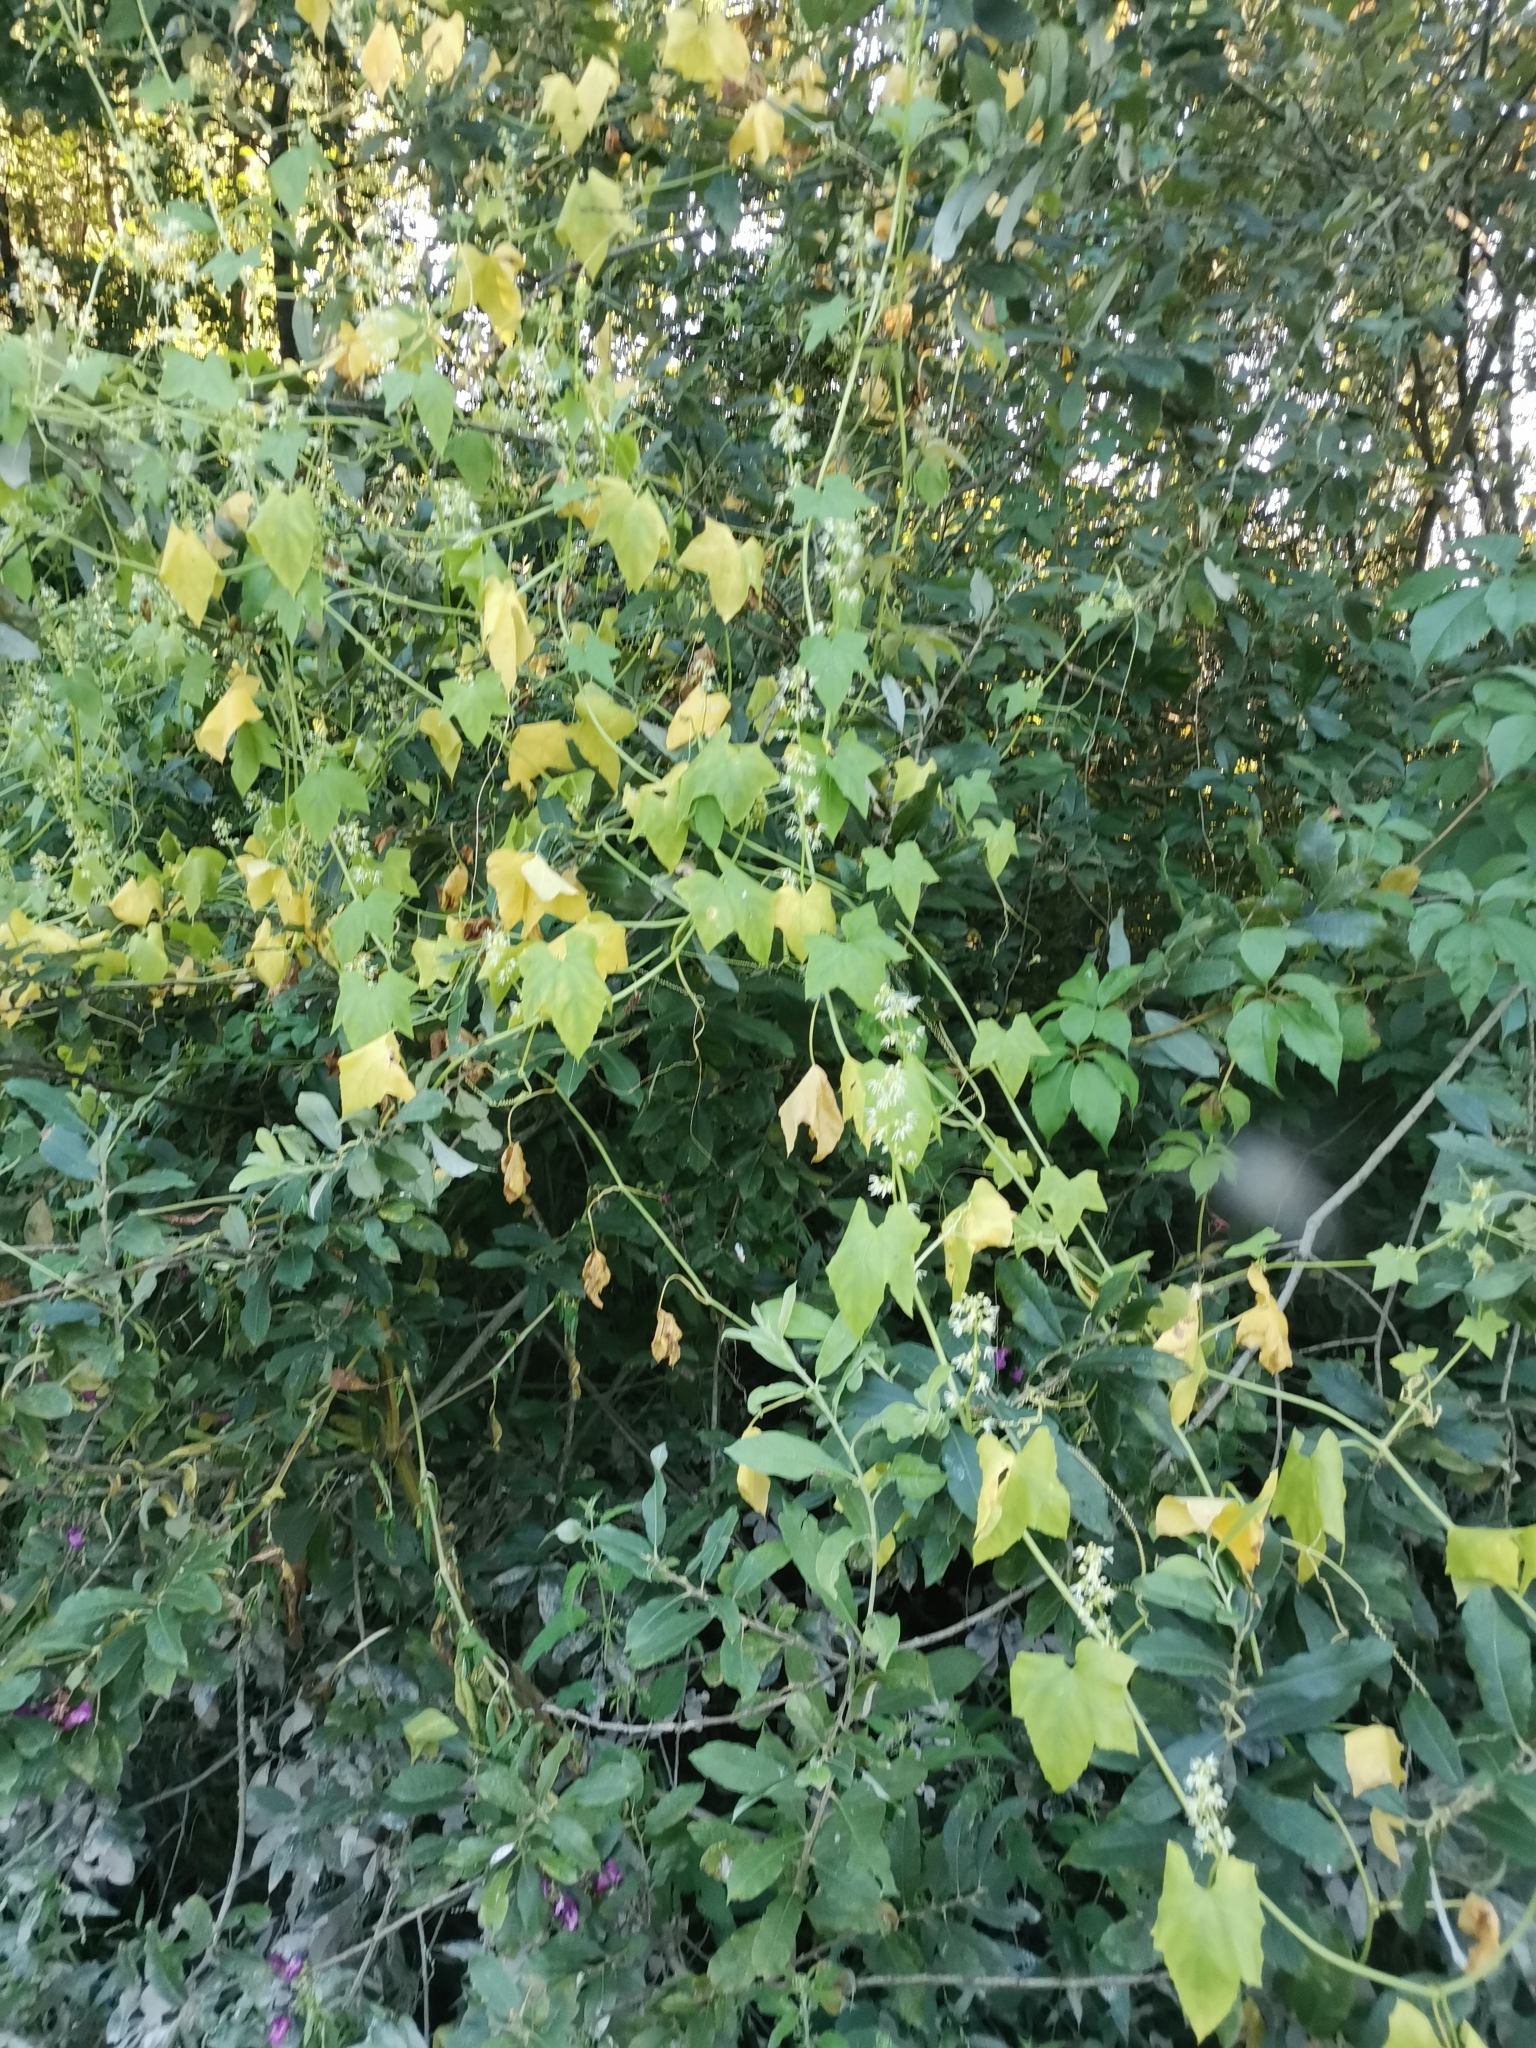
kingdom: Plantae
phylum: Tracheophyta
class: Magnoliopsida
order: Cucurbitales
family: Cucurbitaceae
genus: Echinocystis
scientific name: Echinocystis lobata
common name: Wild cucumber
